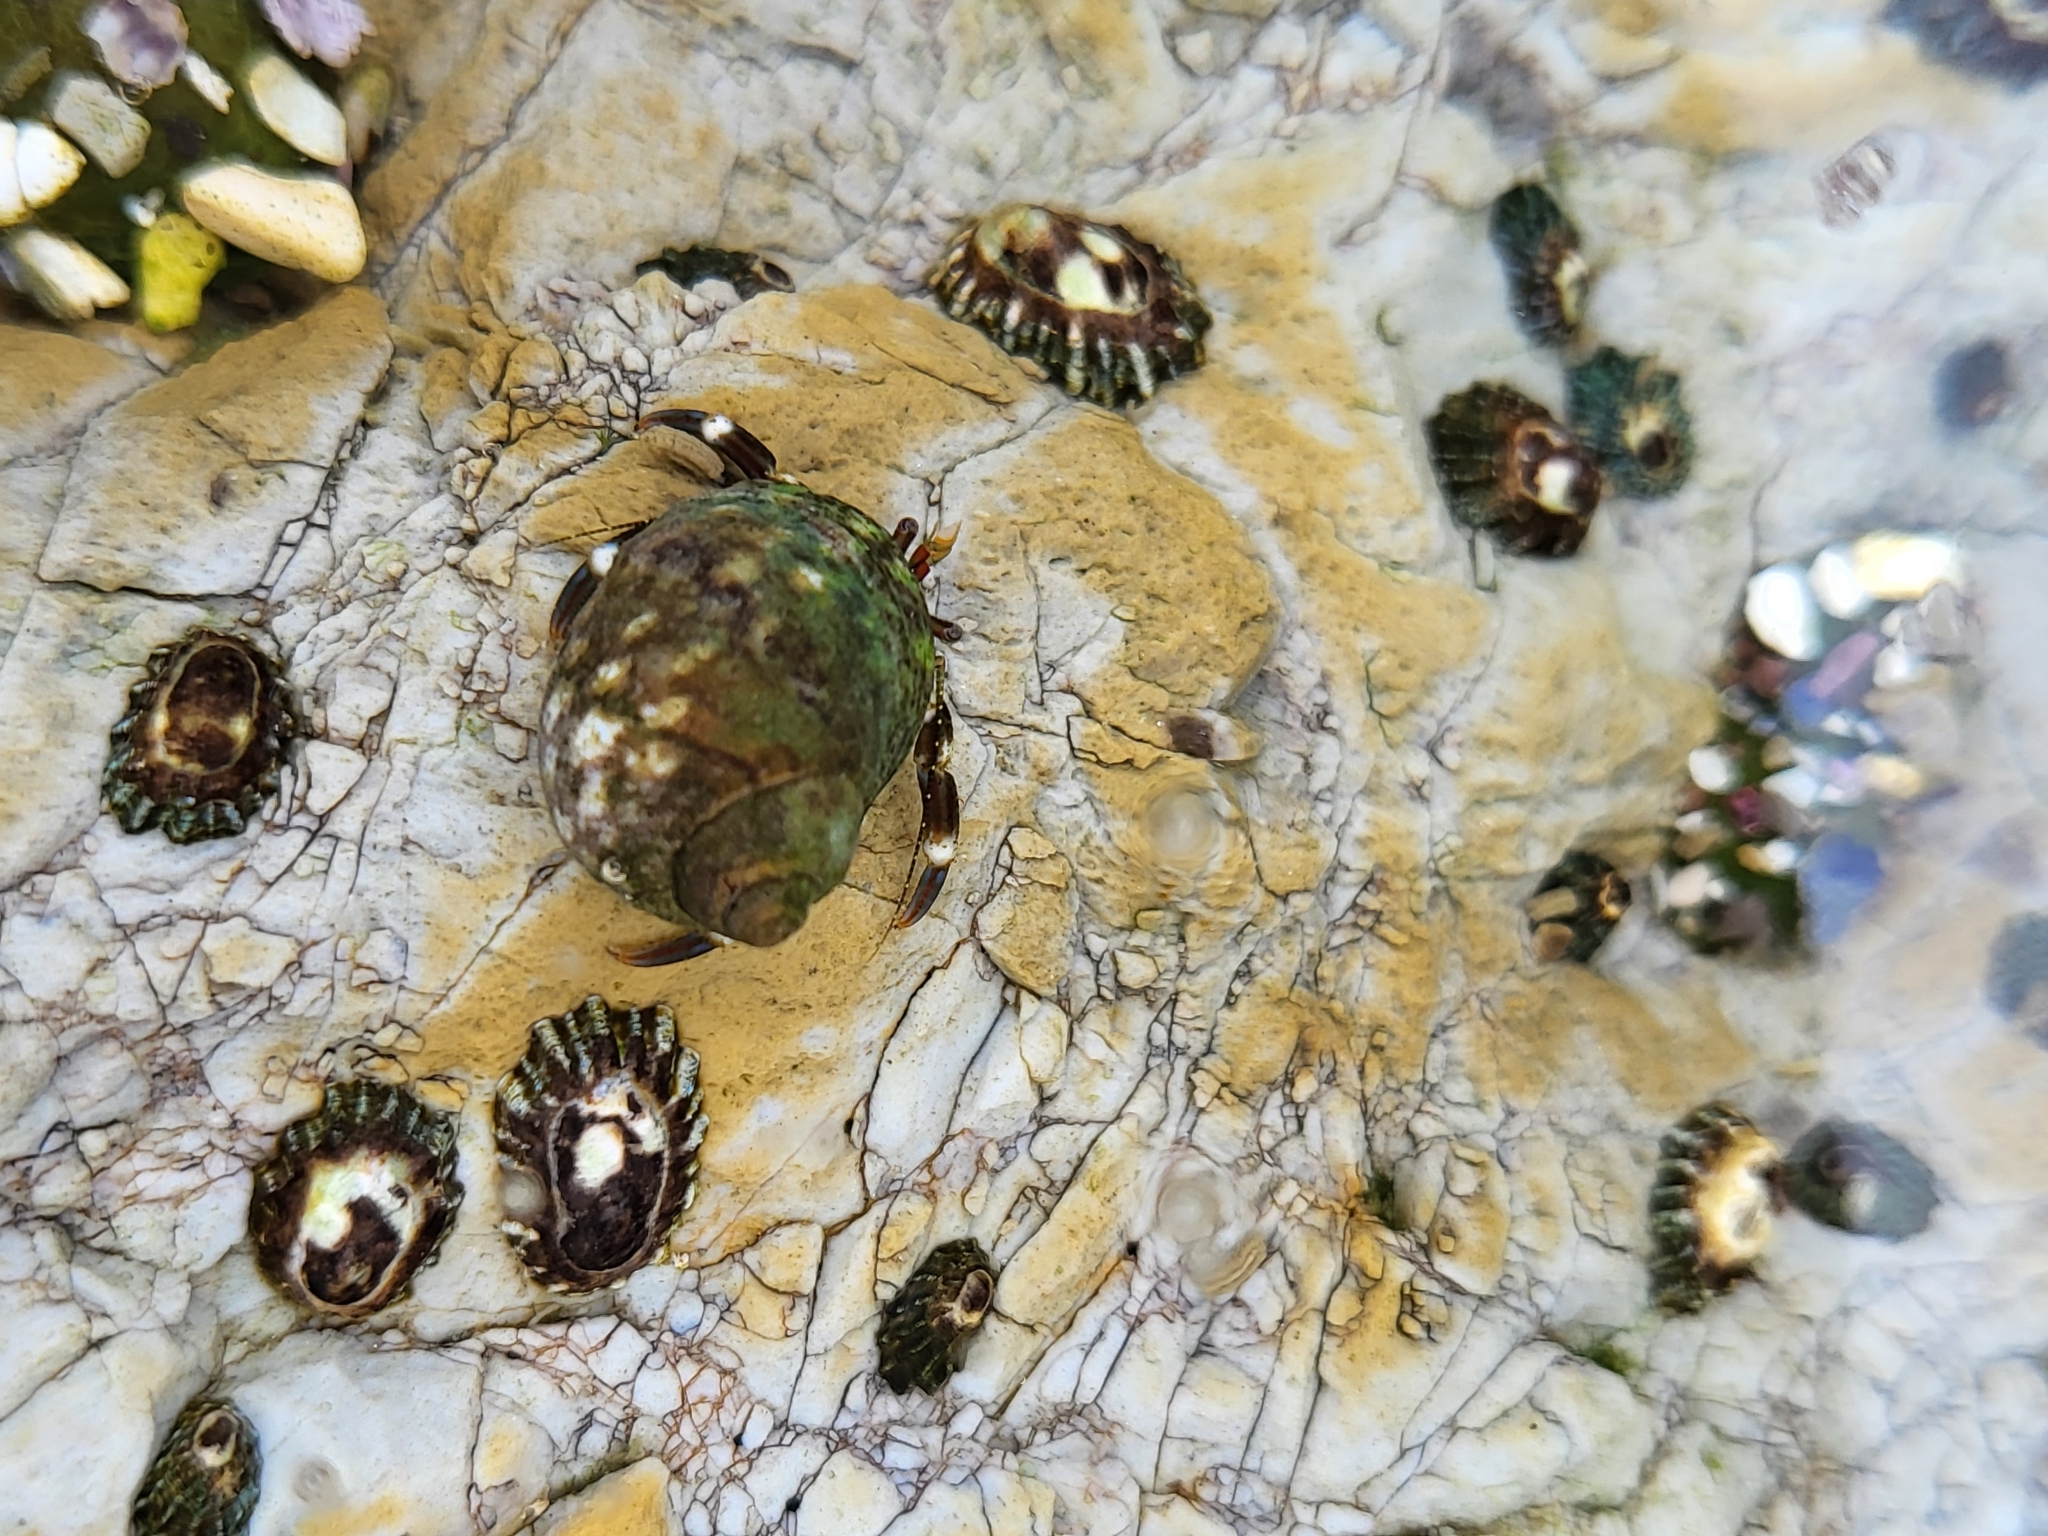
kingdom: Animalia
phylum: Arthropoda
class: Malacostraca
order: Decapoda
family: Paguridae
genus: Pagurus
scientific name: Pagurus venturensis
